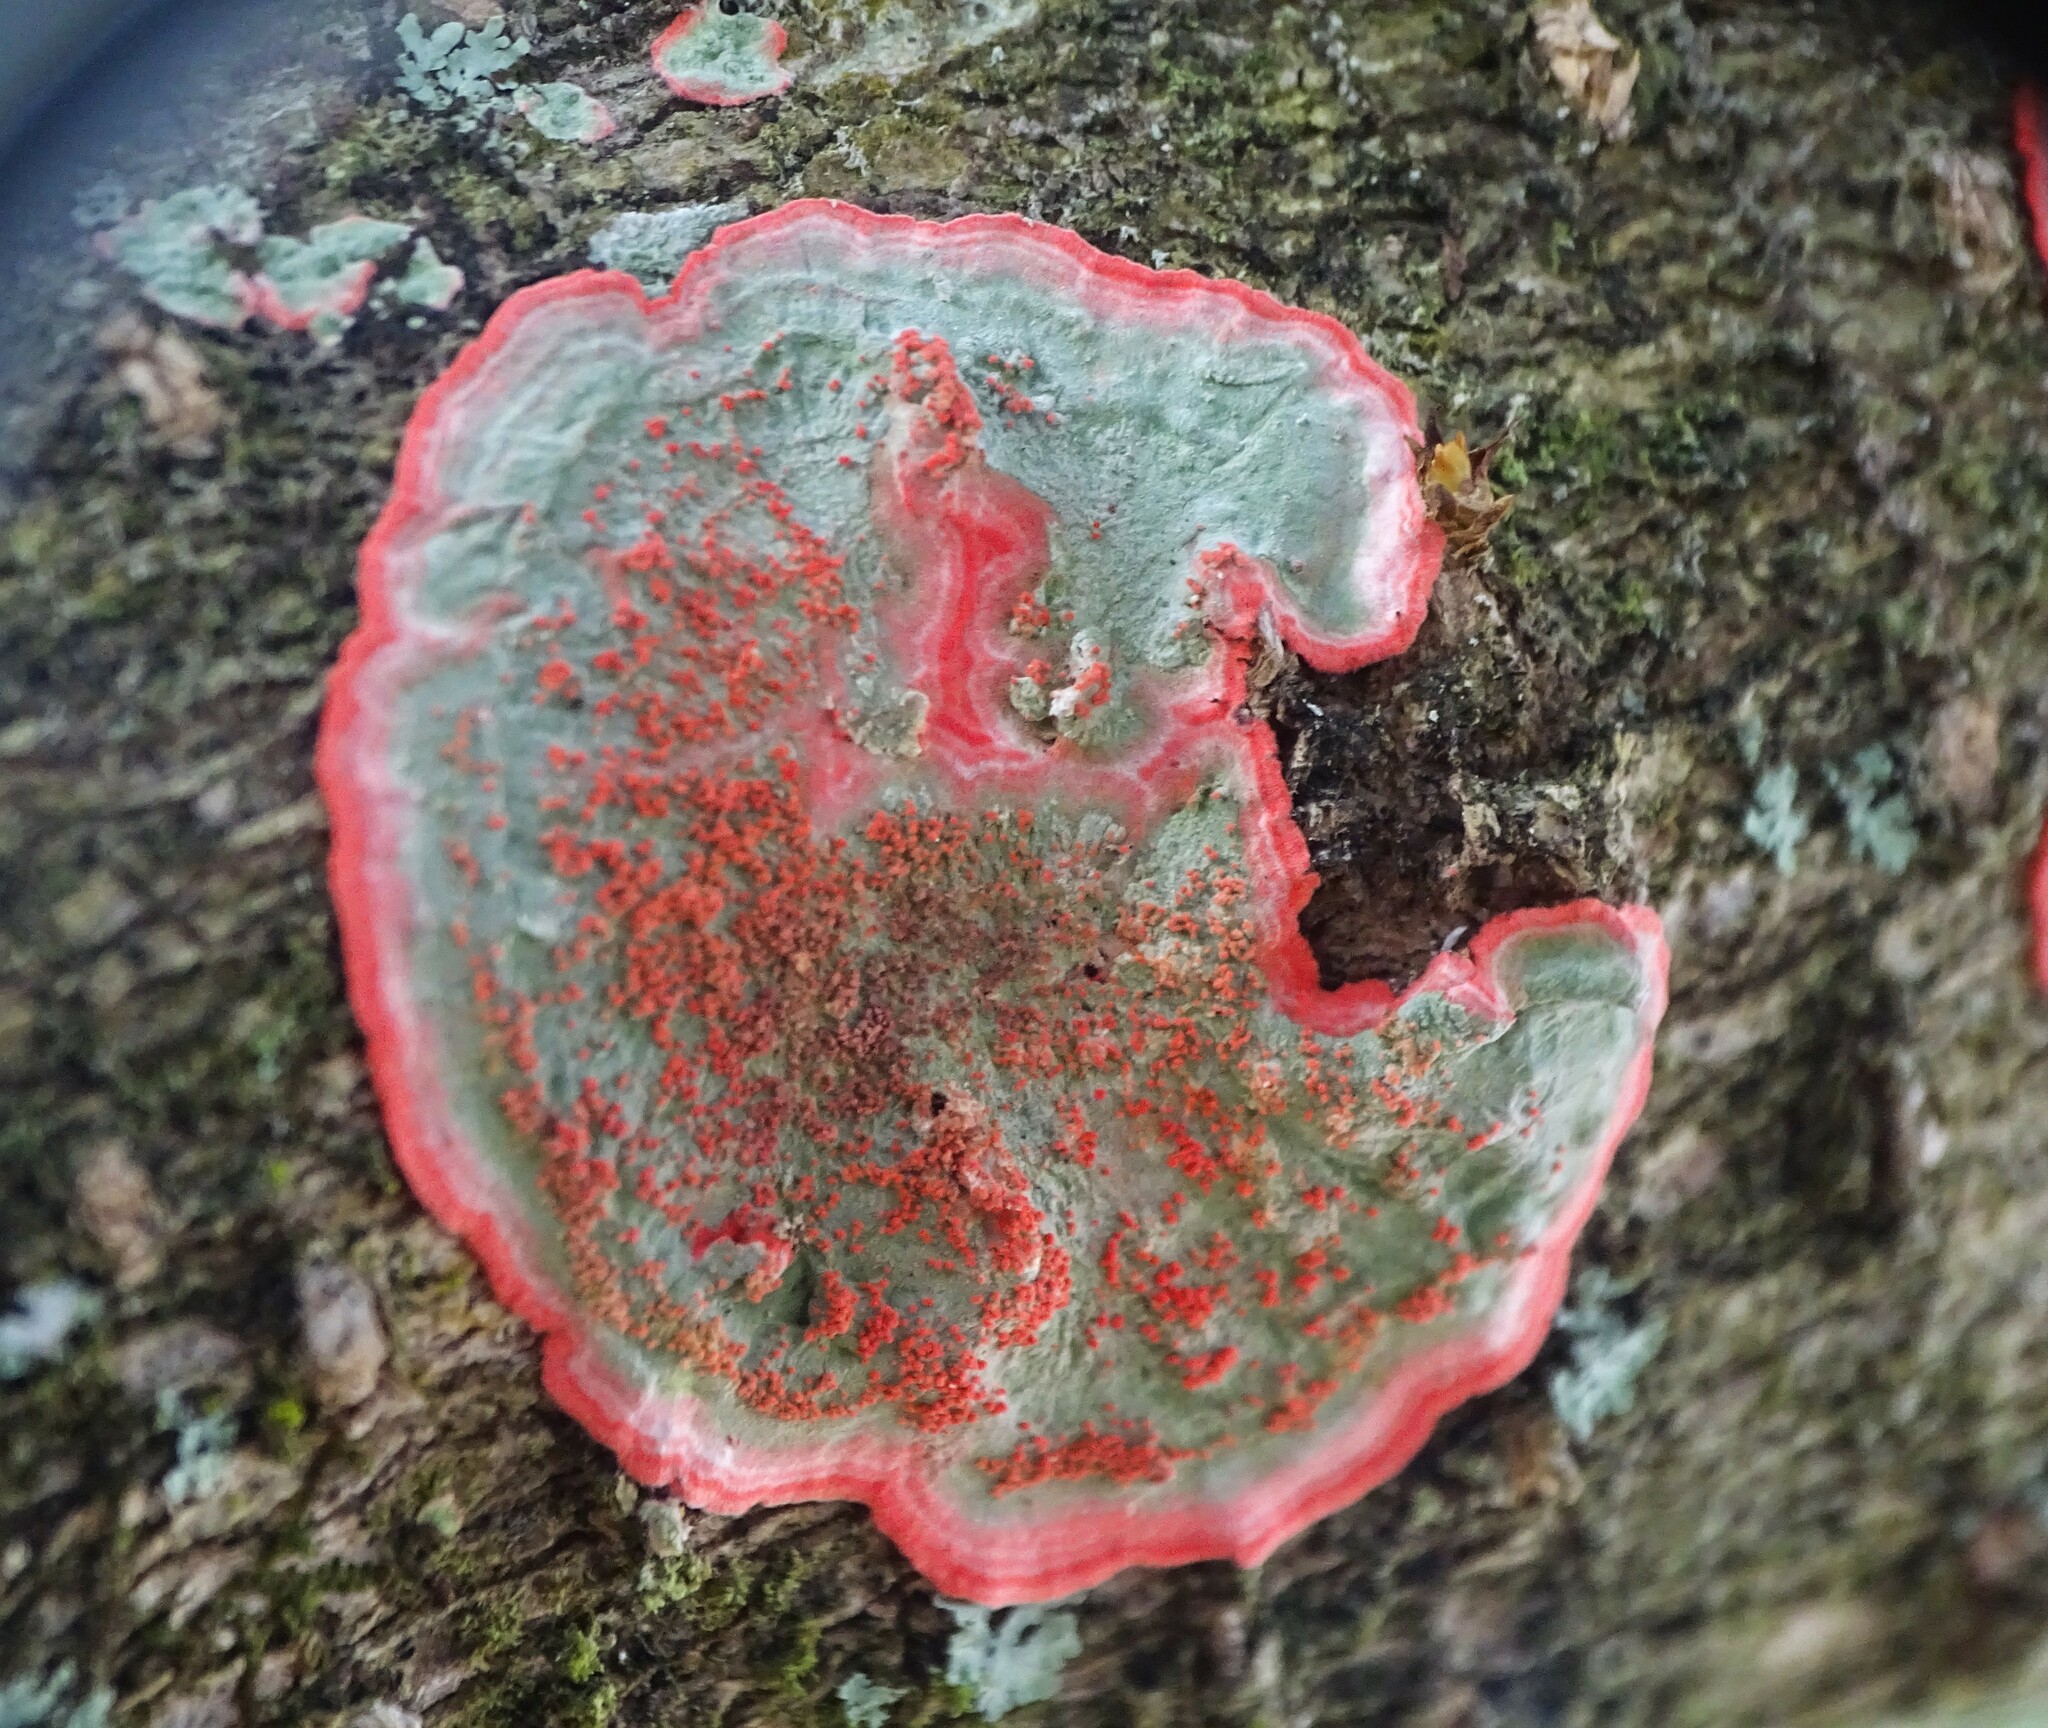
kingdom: Fungi
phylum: Ascomycota
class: Arthoniomycetes
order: Arthoniales
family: Arthoniaceae
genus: Herpothallon
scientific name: Herpothallon rubrocinctum
